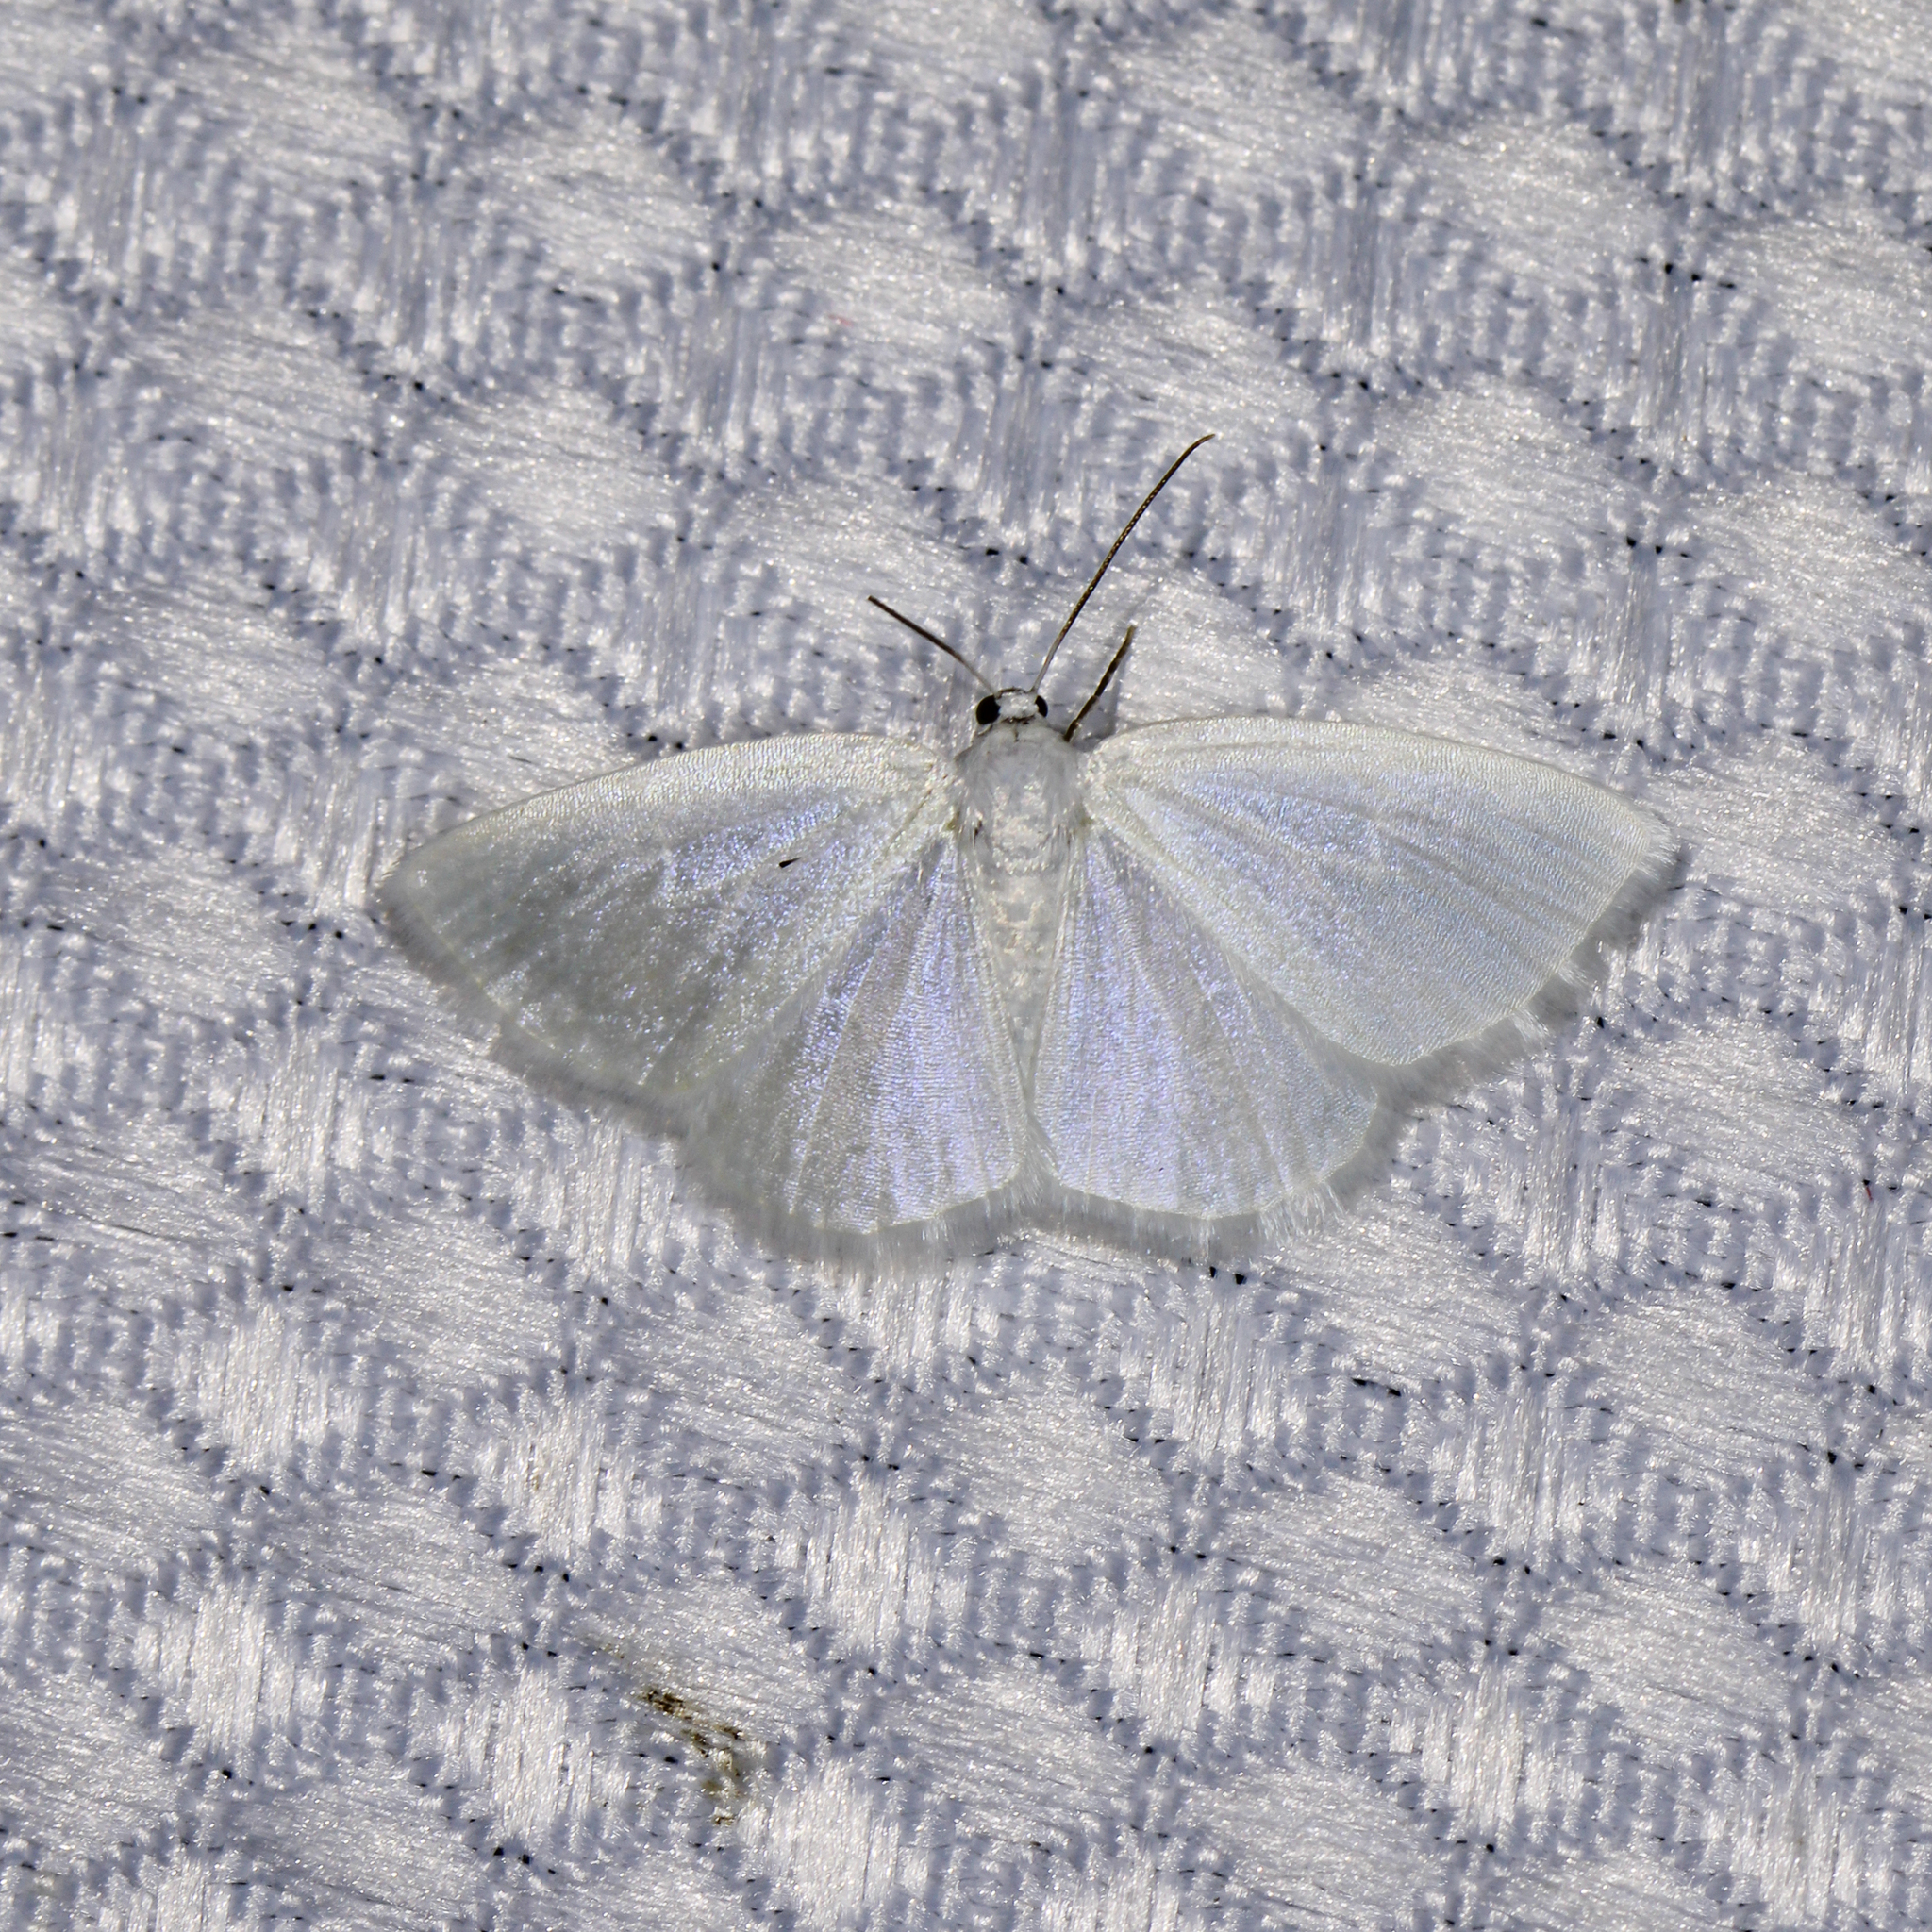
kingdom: Animalia
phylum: Arthropoda
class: Insecta
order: Lepidoptera
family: Geometridae
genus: Lomographa
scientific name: Lomographa vestaliata
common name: White spring moth
